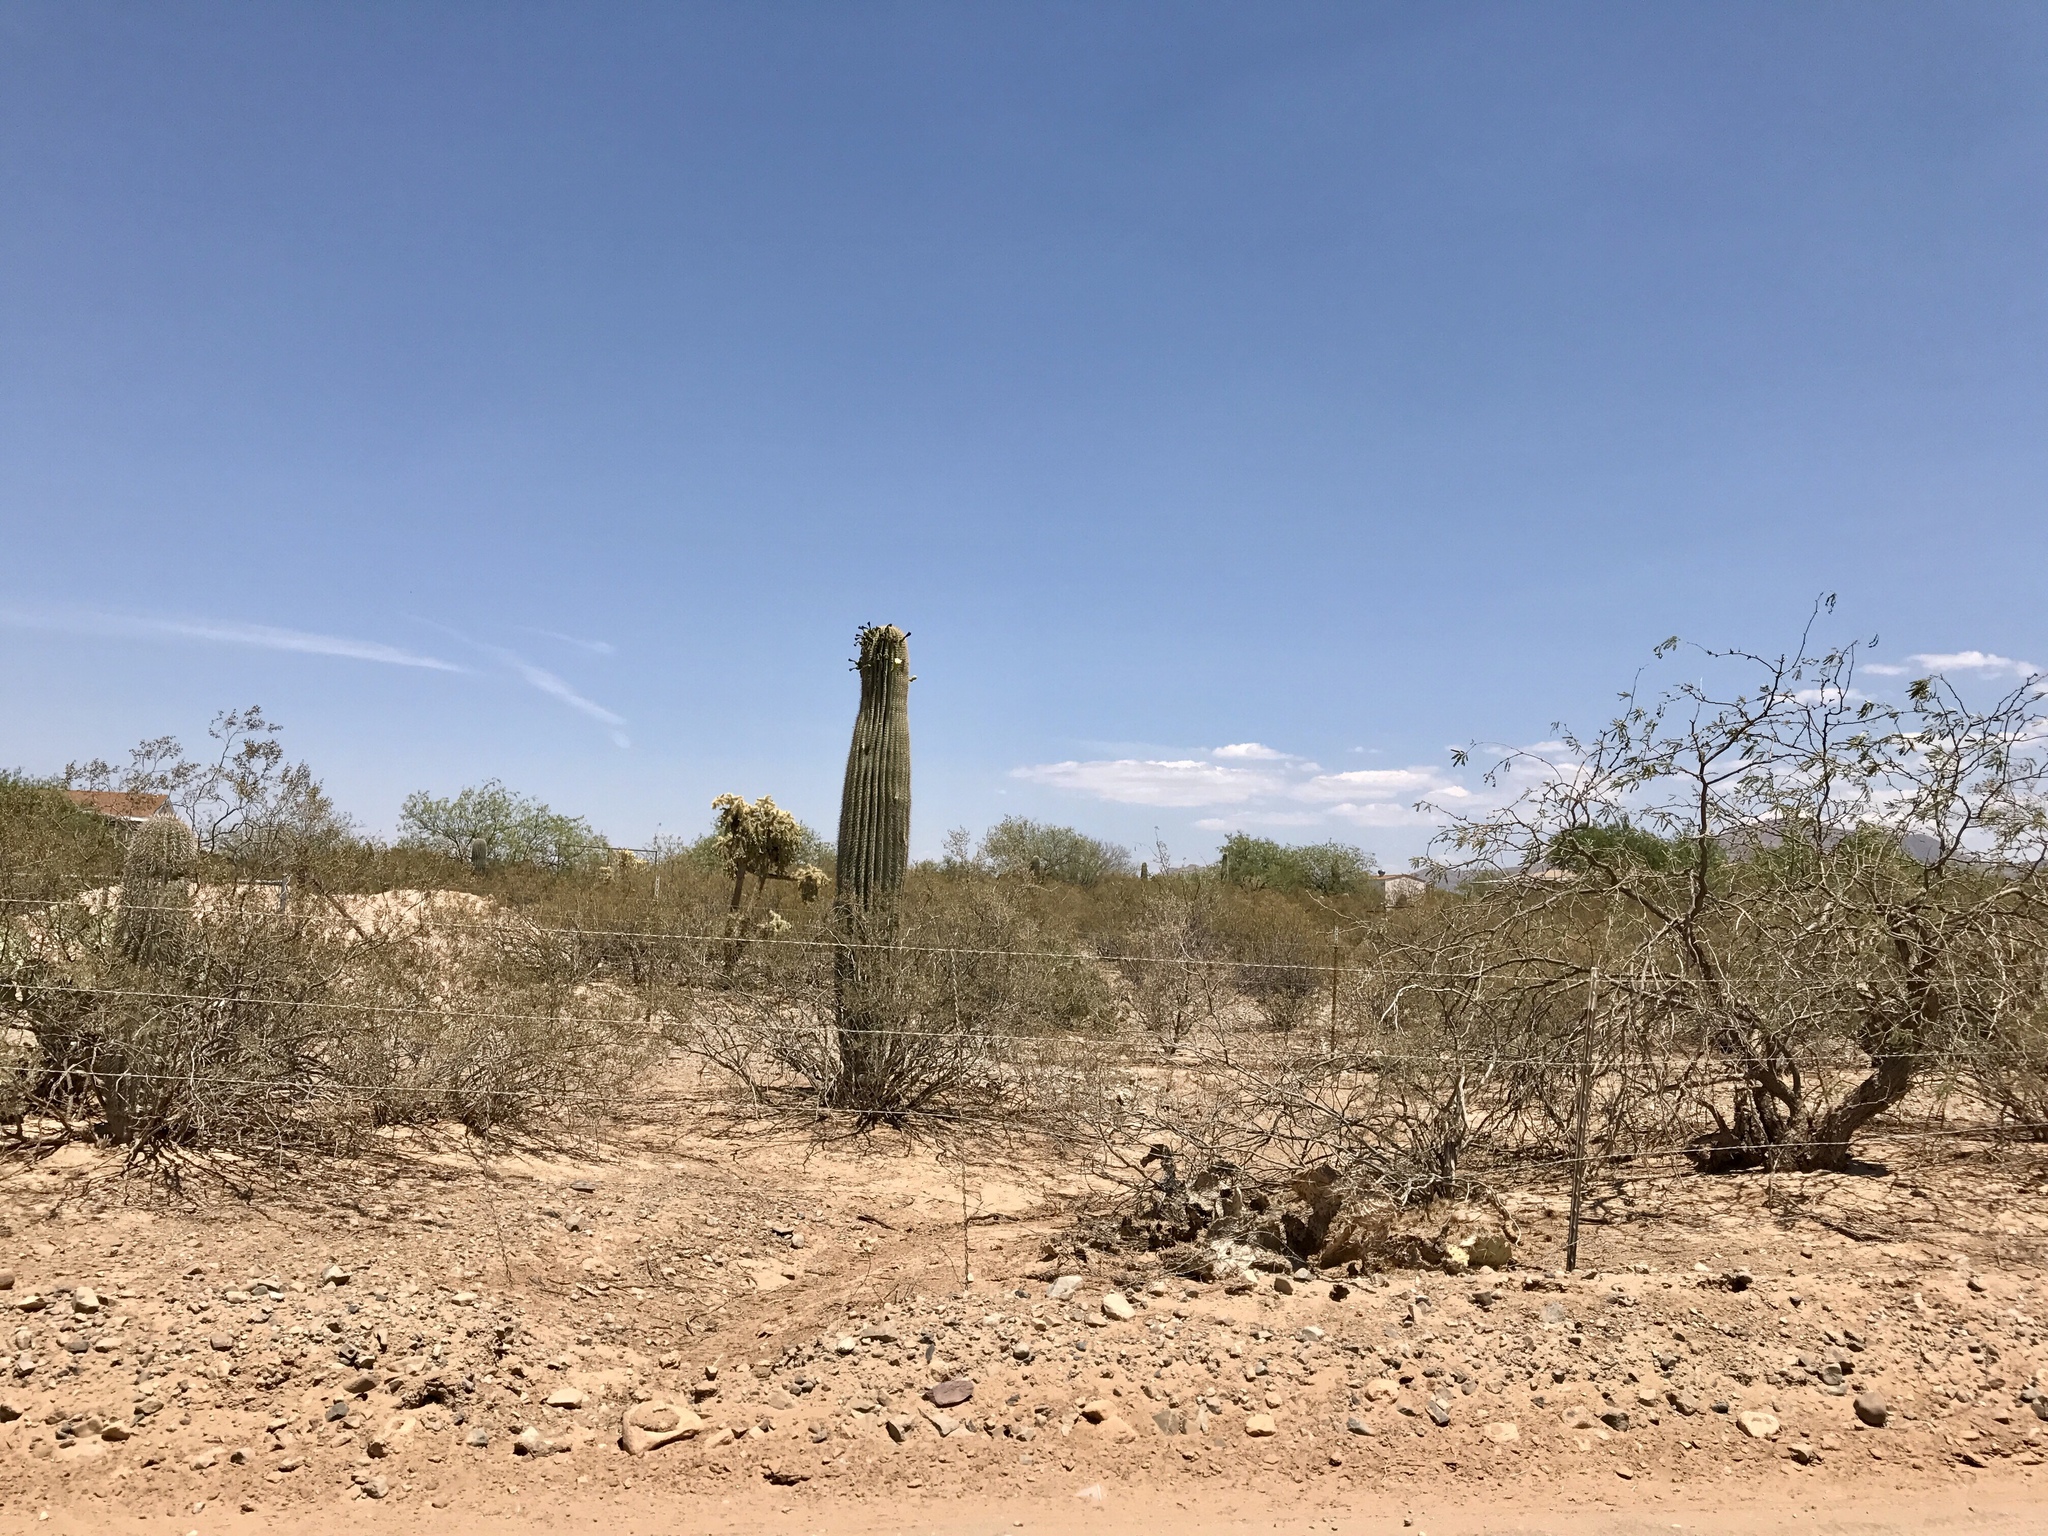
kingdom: Plantae
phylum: Tracheophyta
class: Magnoliopsida
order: Caryophyllales
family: Cactaceae
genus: Carnegiea
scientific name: Carnegiea gigantea
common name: Saguaro
